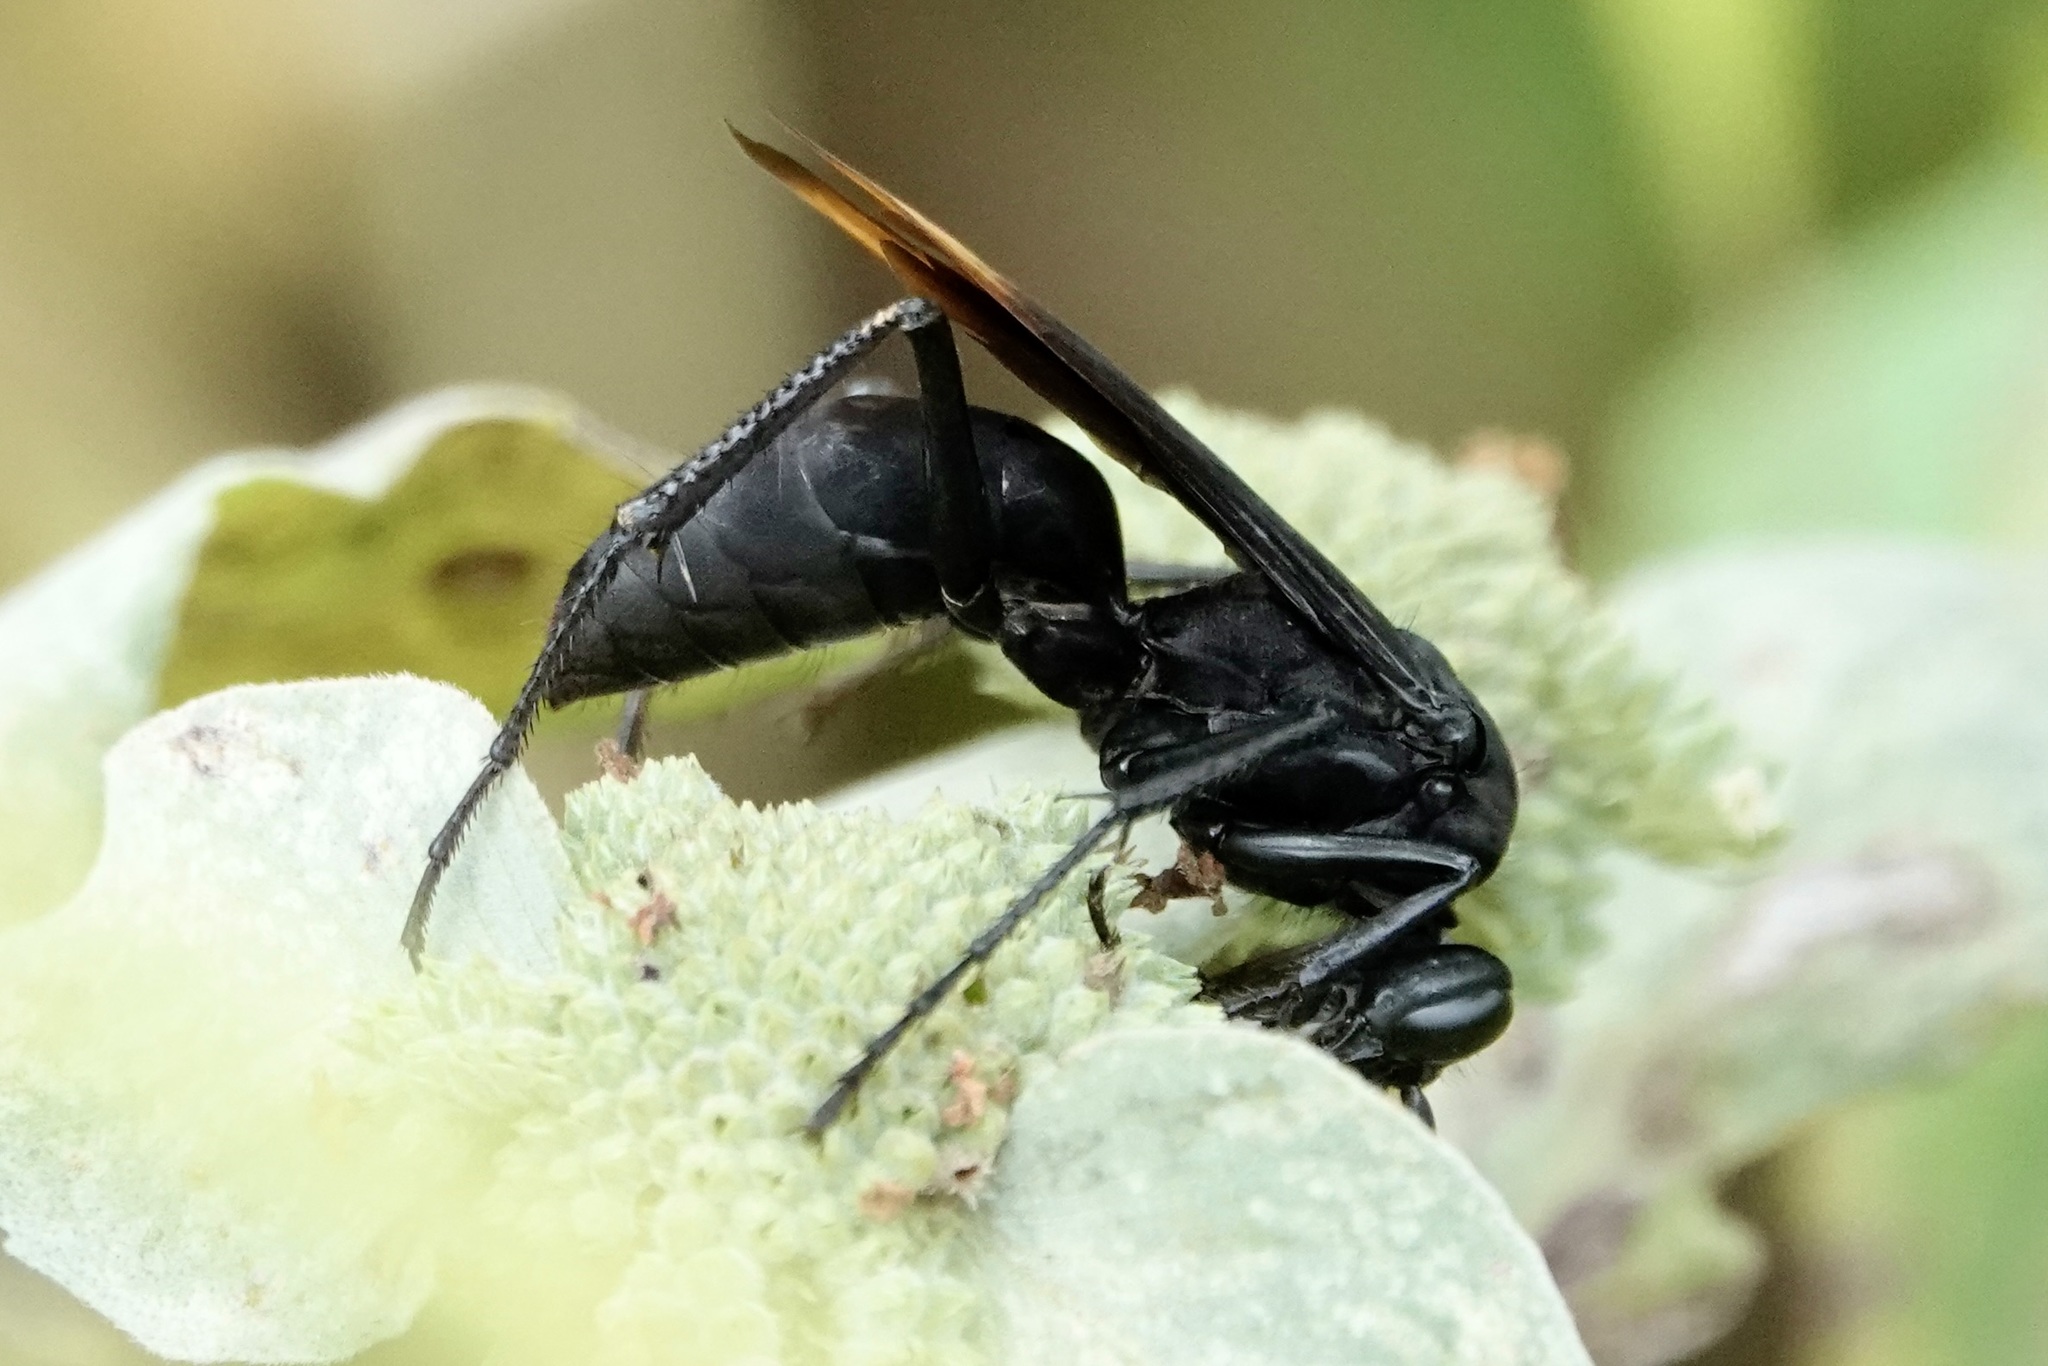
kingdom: Animalia
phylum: Arthropoda
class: Insecta
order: Hymenoptera
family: Pompilidae
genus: Entypus
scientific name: Entypus unifasciatus
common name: Eastern tawny-horned spider wasp
